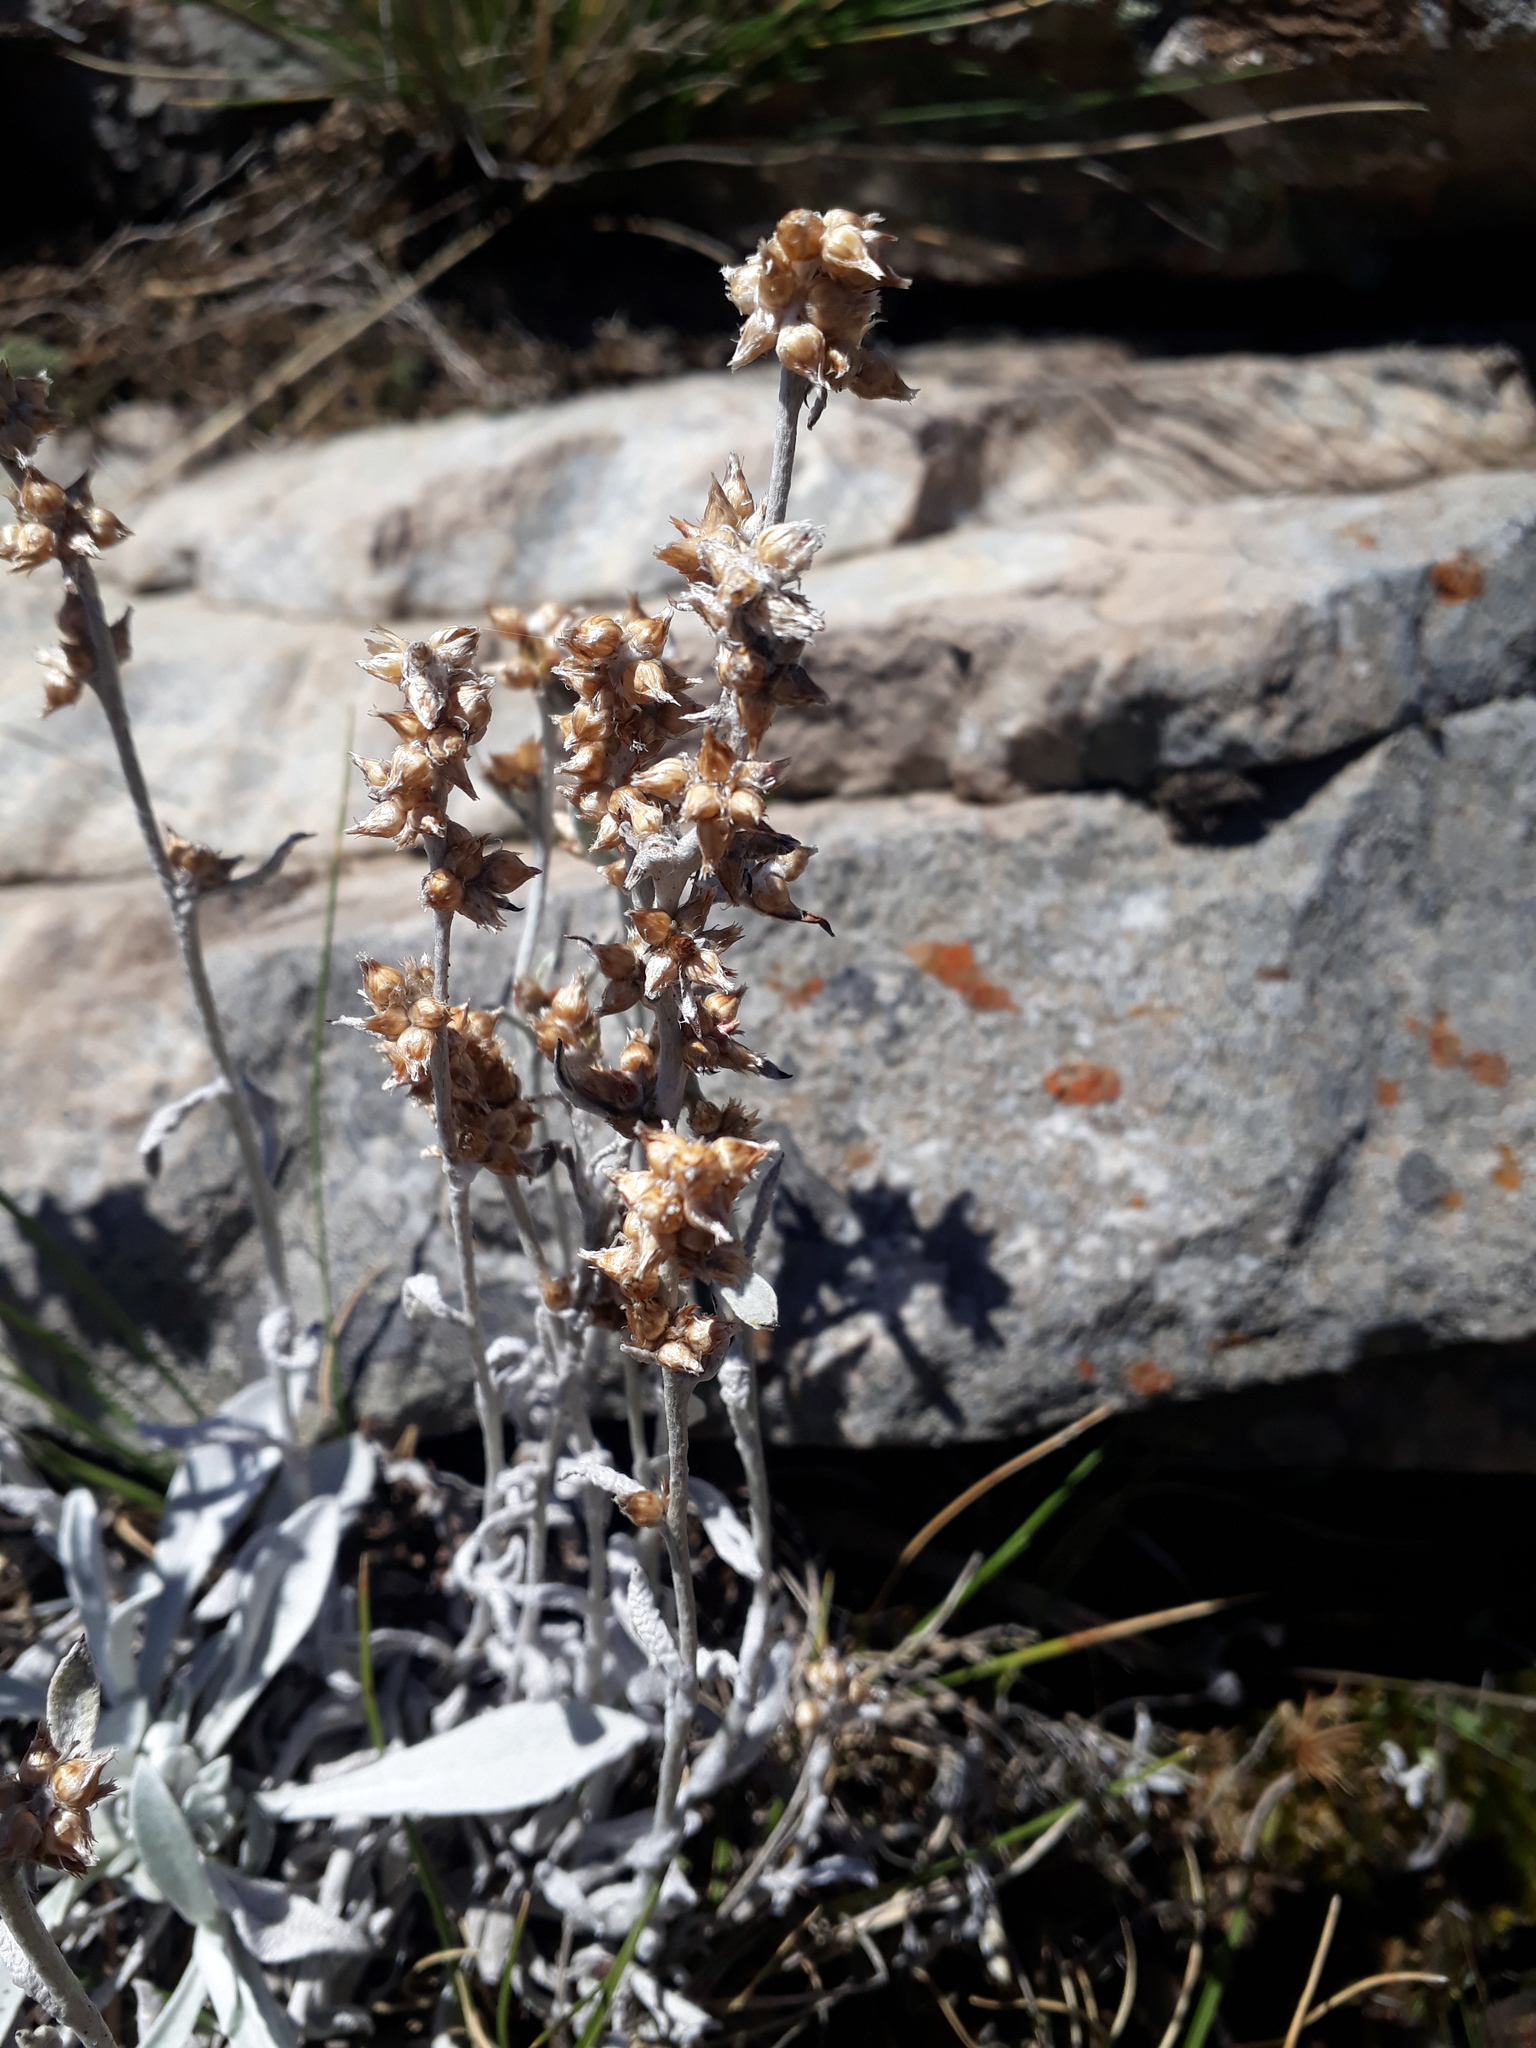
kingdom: Plantae
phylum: Tracheophyta
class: Magnoliopsida
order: Asterales
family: Asteraceae
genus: Gamochaeta
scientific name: Gamochaeta stachidifolia
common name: Sunflower
